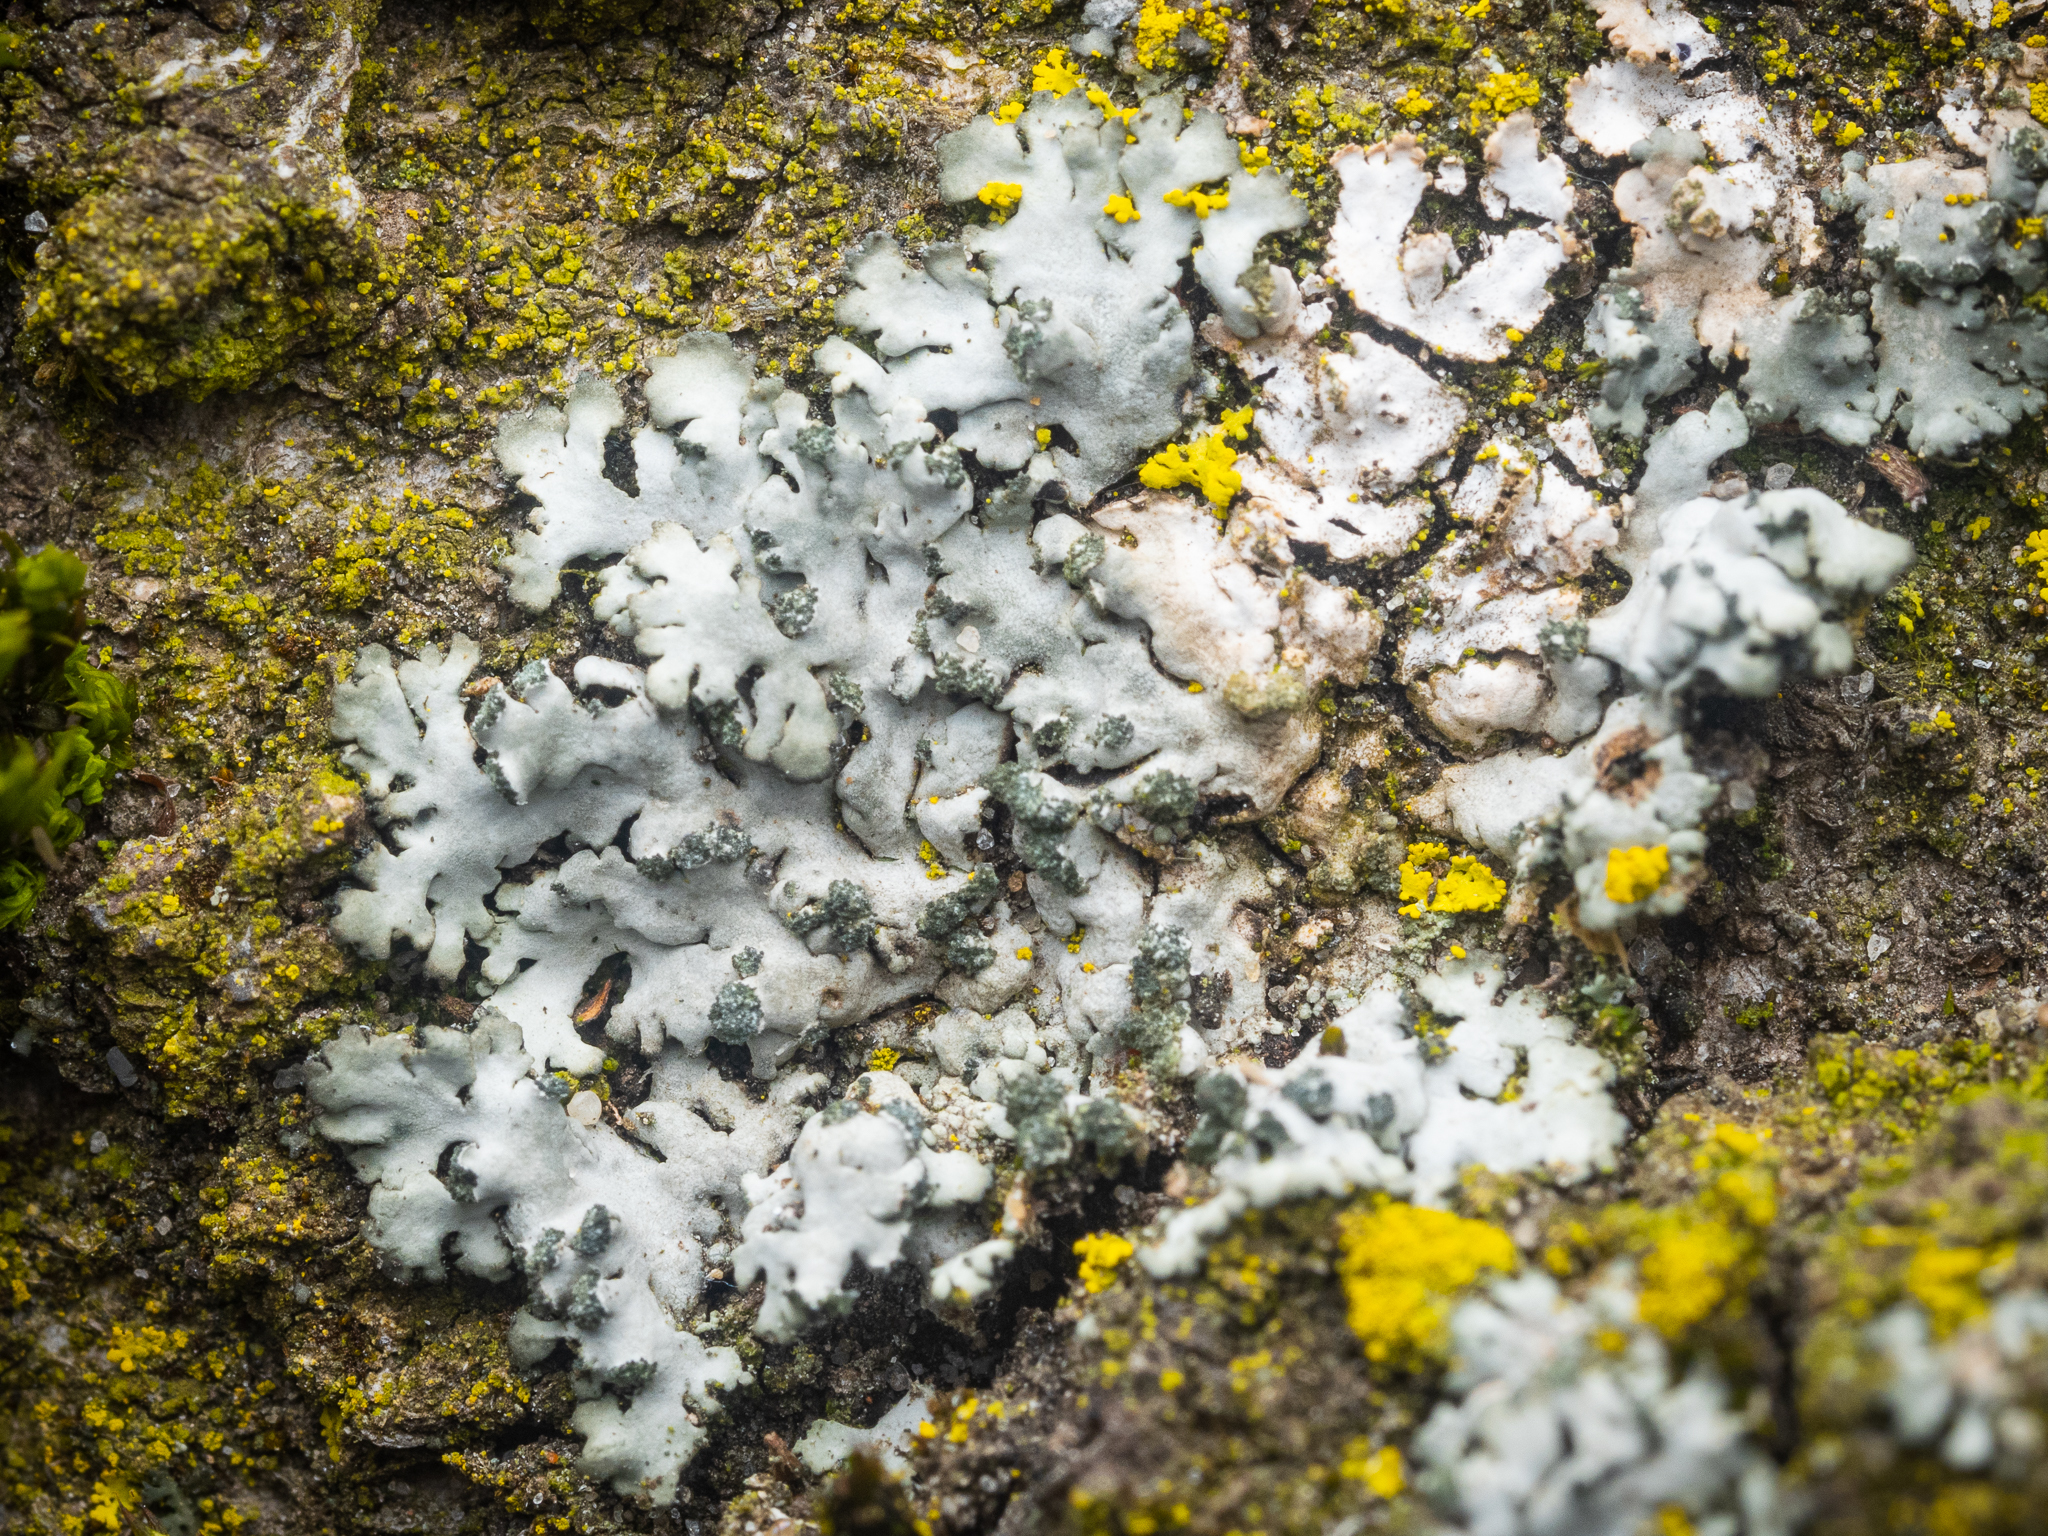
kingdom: Fungi
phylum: Ascomycota
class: Lecanoromycetes
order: Caliciales
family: Physciaceae
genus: Phaeophyscia
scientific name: Phaeophyscia orbicularis
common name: Mealy shadow lichen
